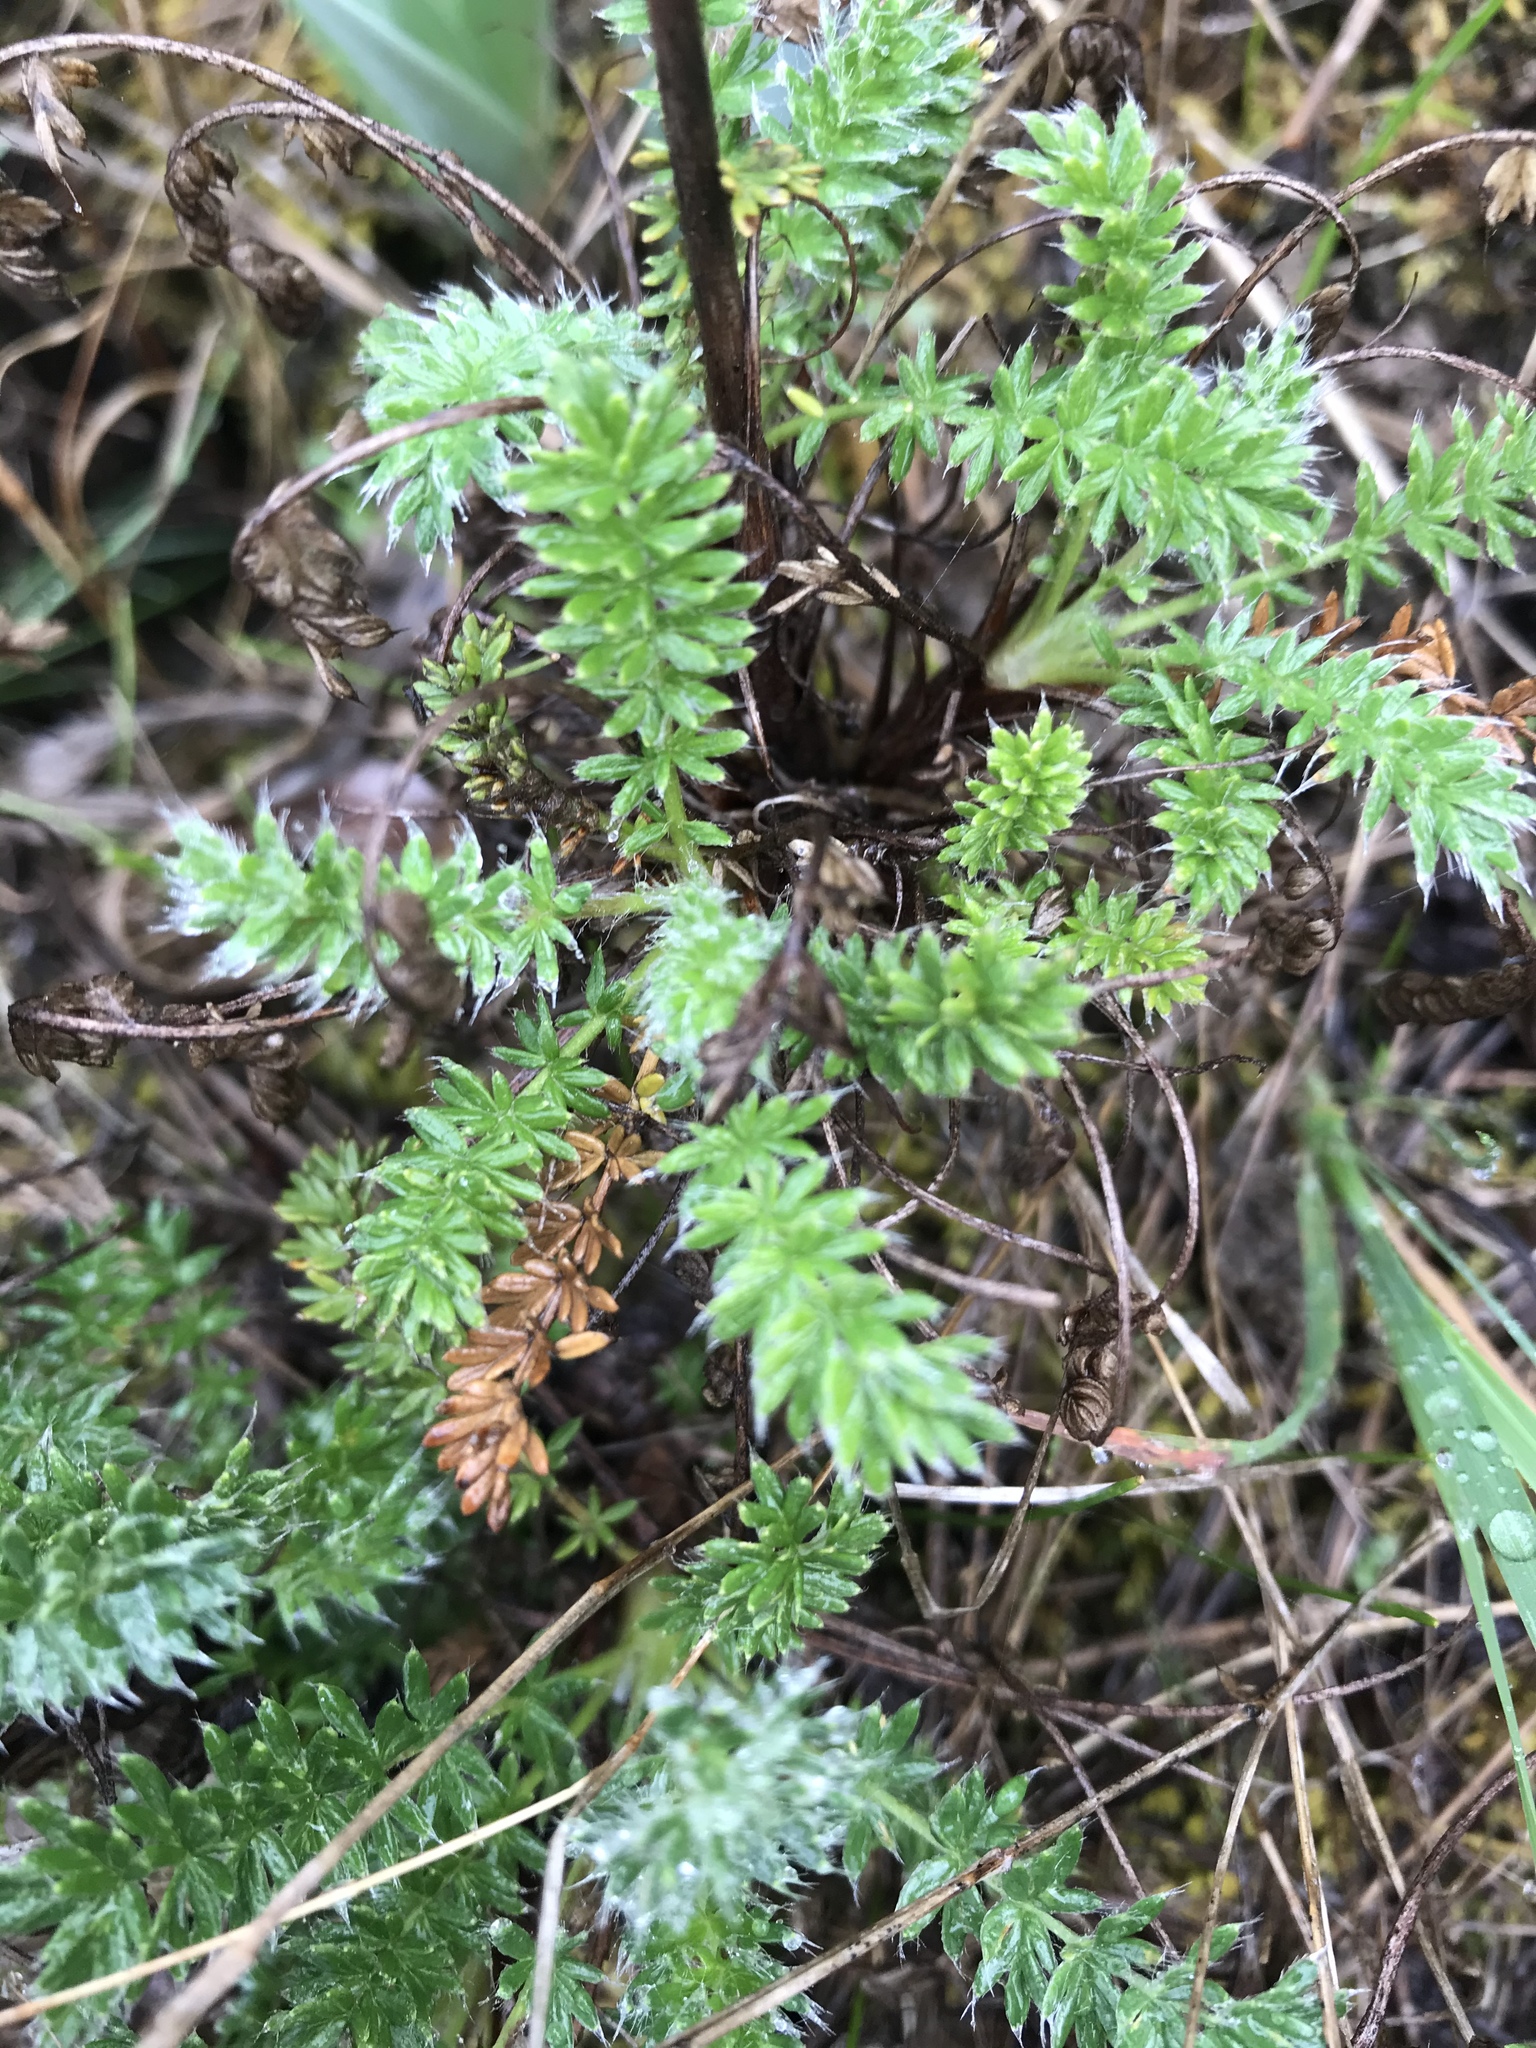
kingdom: Plantae
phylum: Tracheophyta
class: Magnoliopsida
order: Rosales
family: Rosaceae
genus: Acaena
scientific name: Acaena pinnatifida
